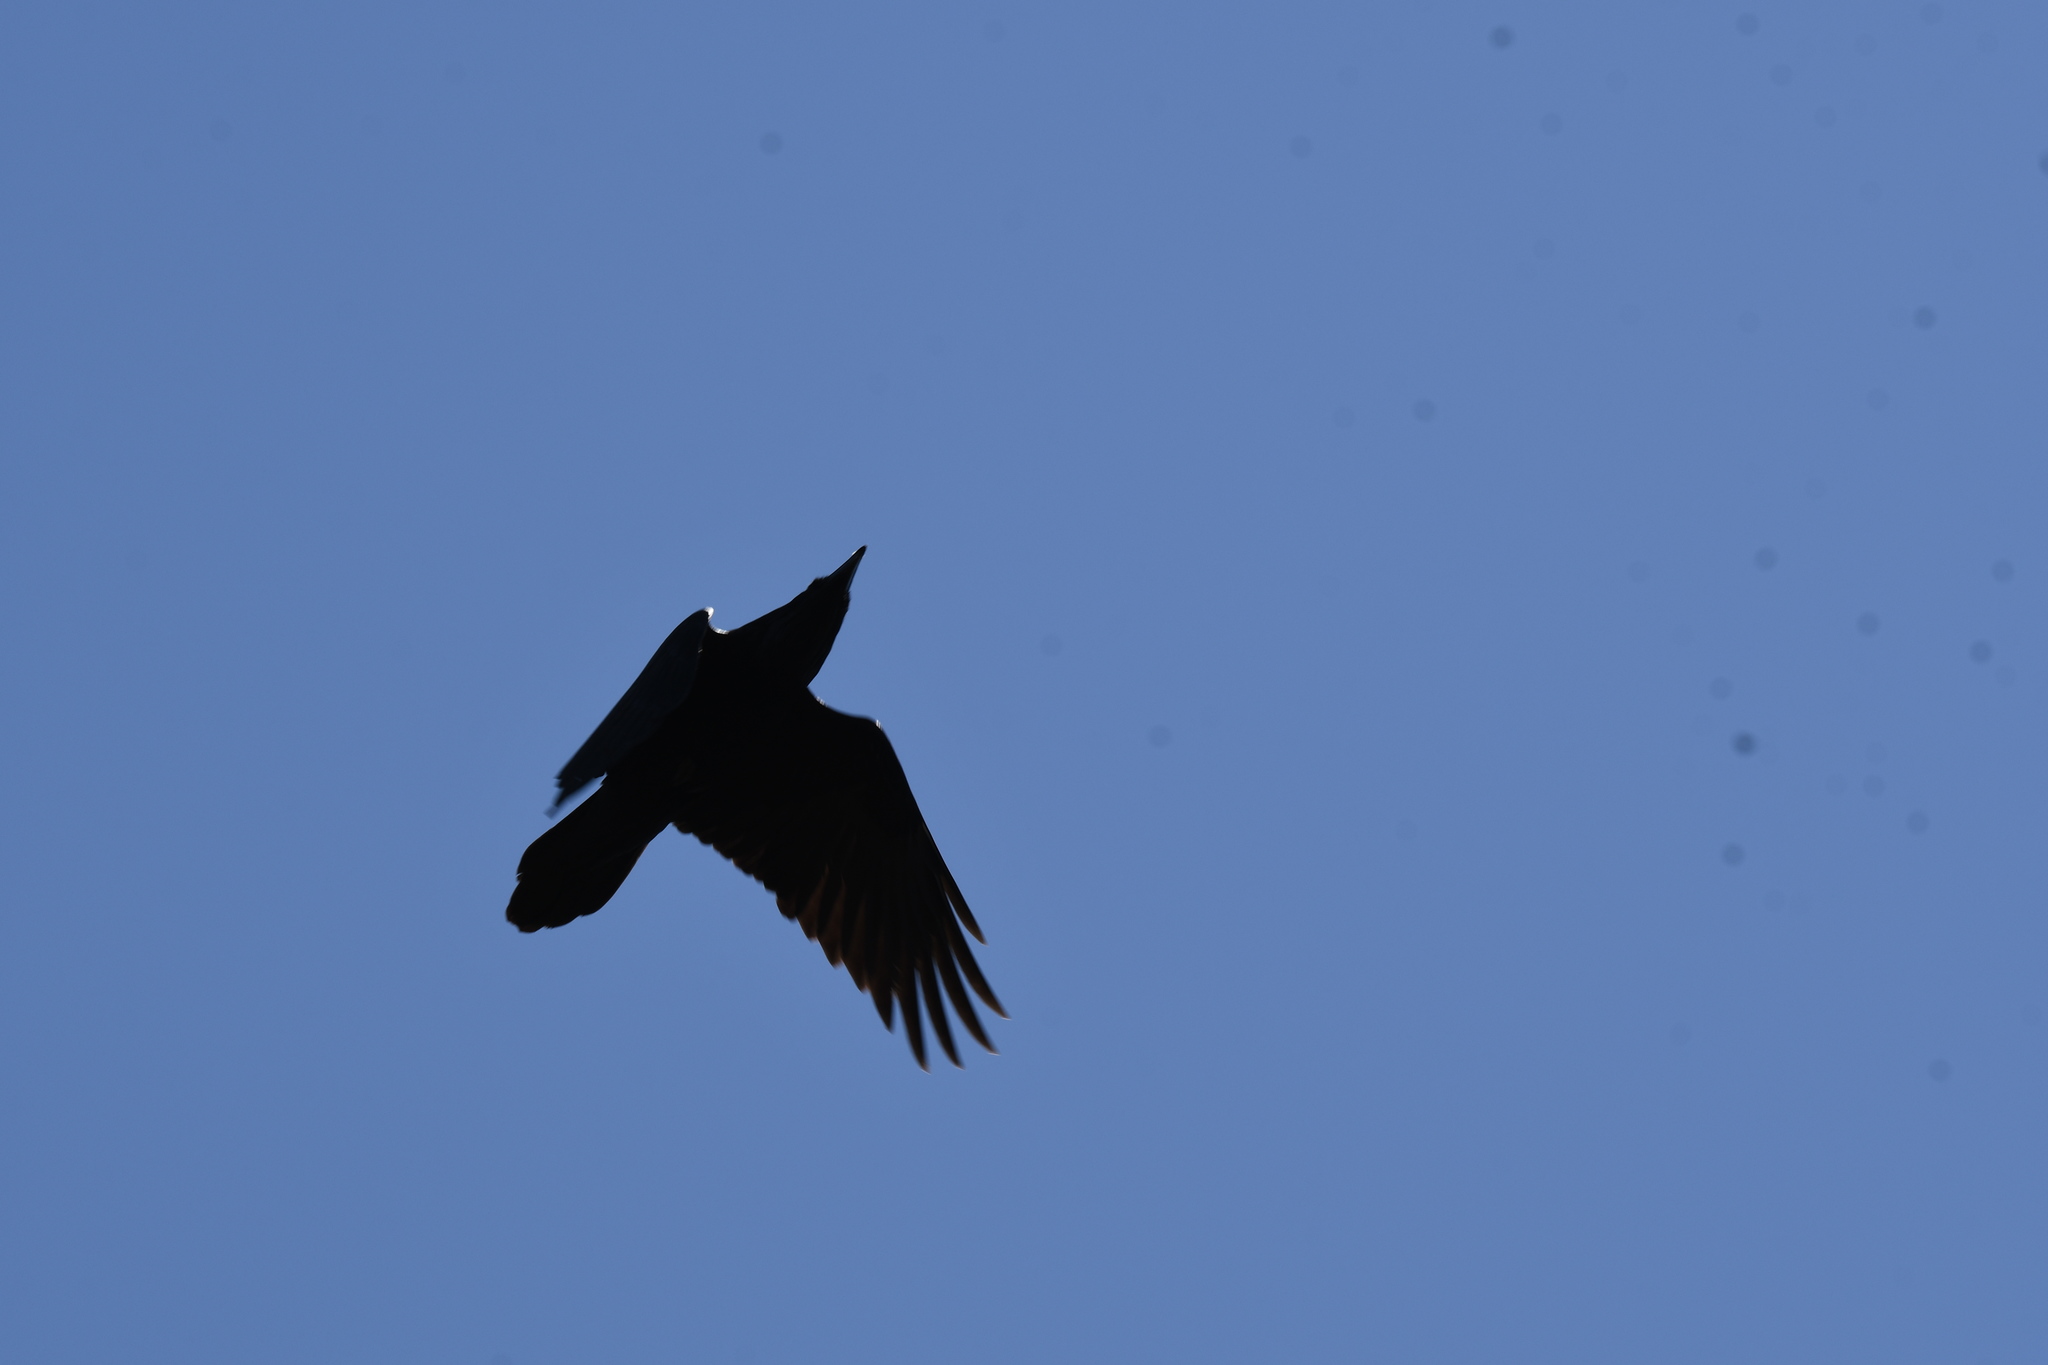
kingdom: Animalia
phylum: Chordata
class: Aves
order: Passeriformes
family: Corvidae
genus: Corvus
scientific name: Corvus corax
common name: Common raven
